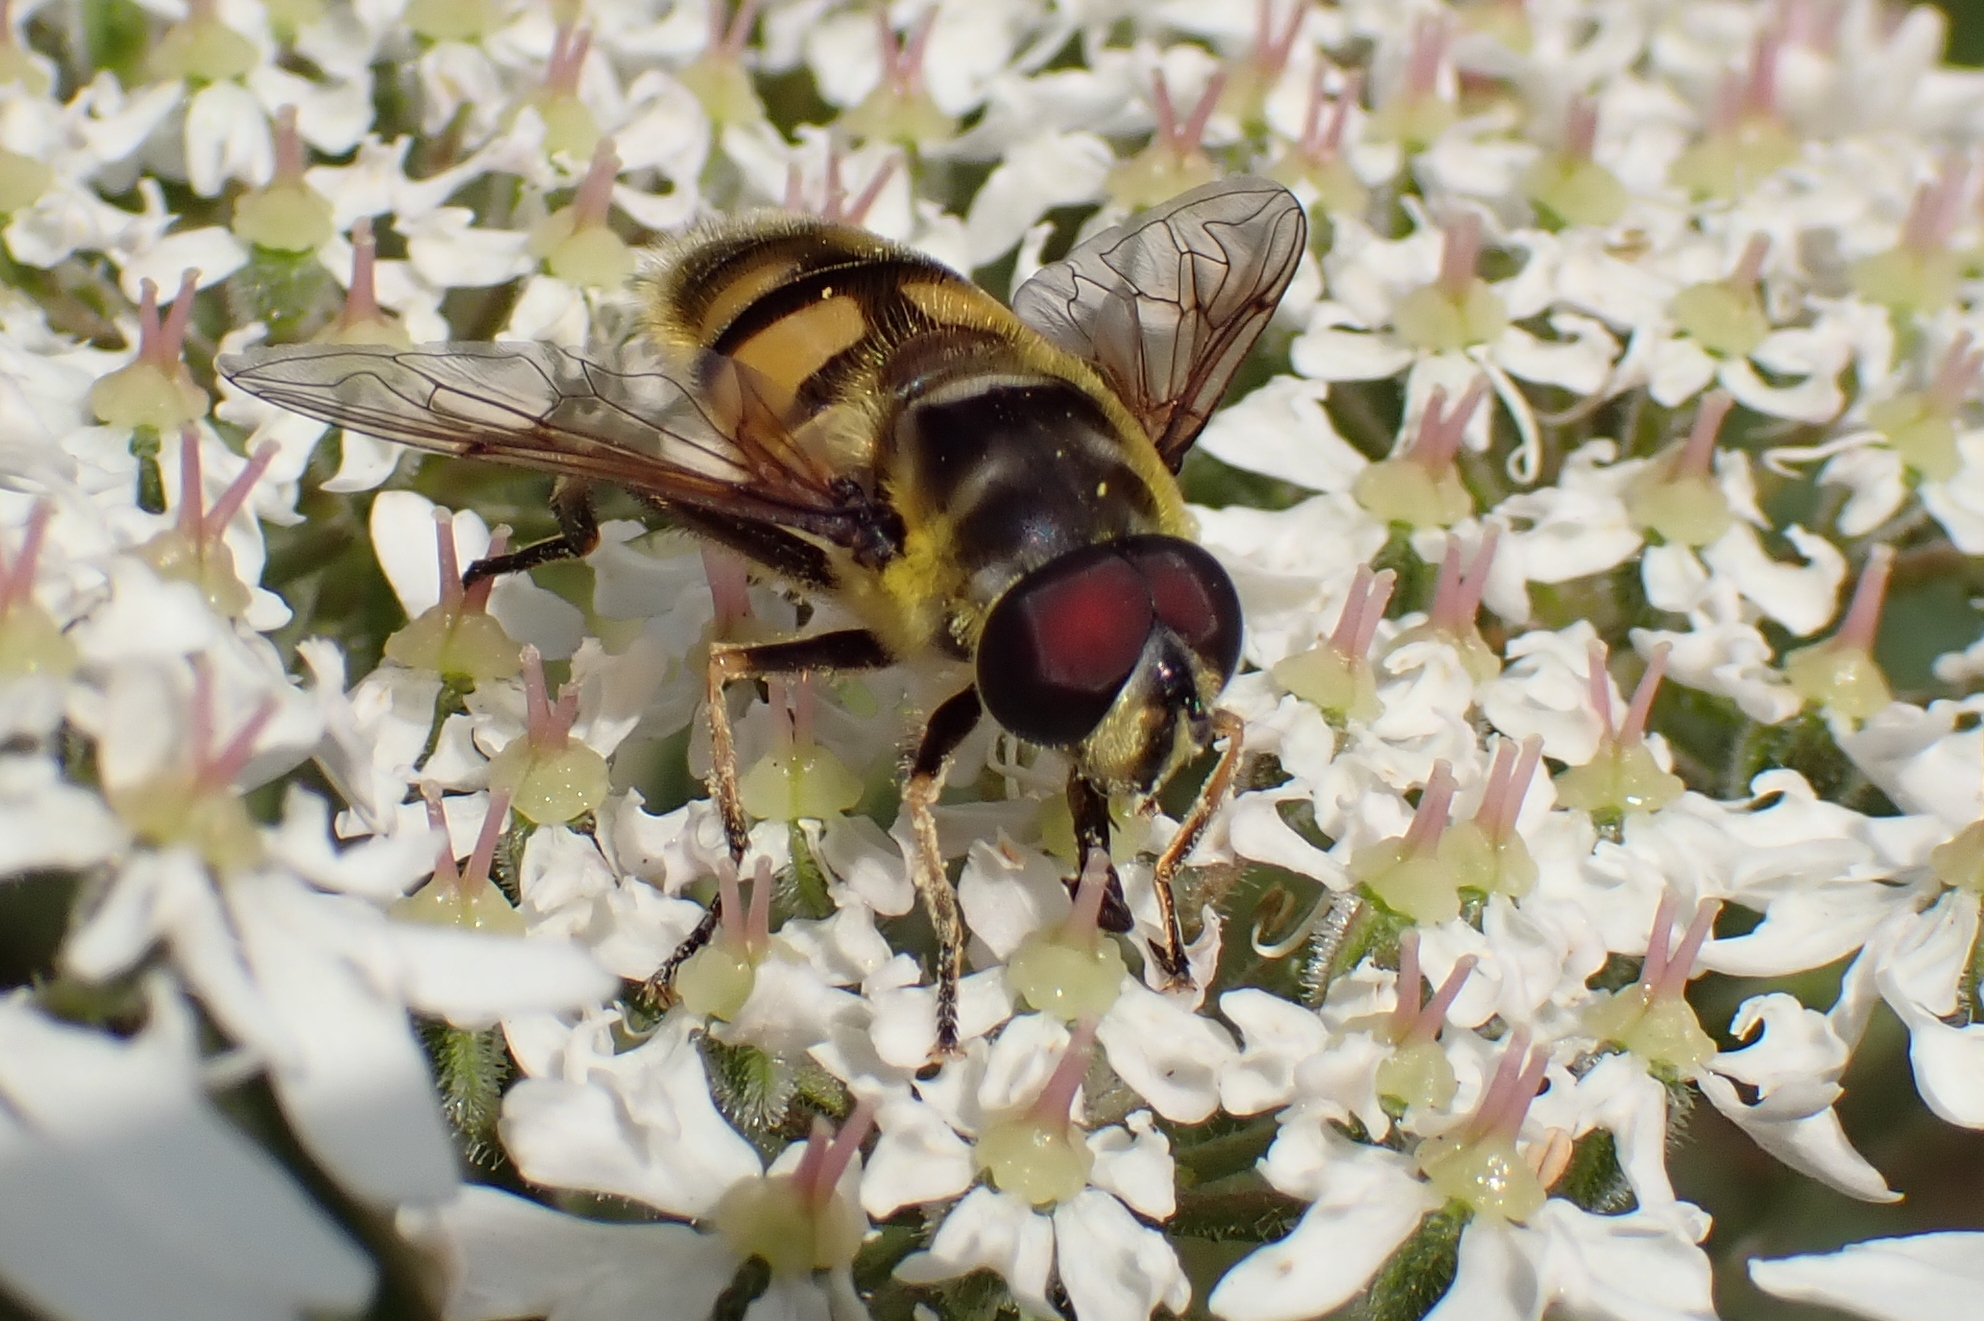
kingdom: Animalia
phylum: Arthropoda
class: Insecta
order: Diptera
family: Syrphidae
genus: Myathropa
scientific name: Myathropa florea
